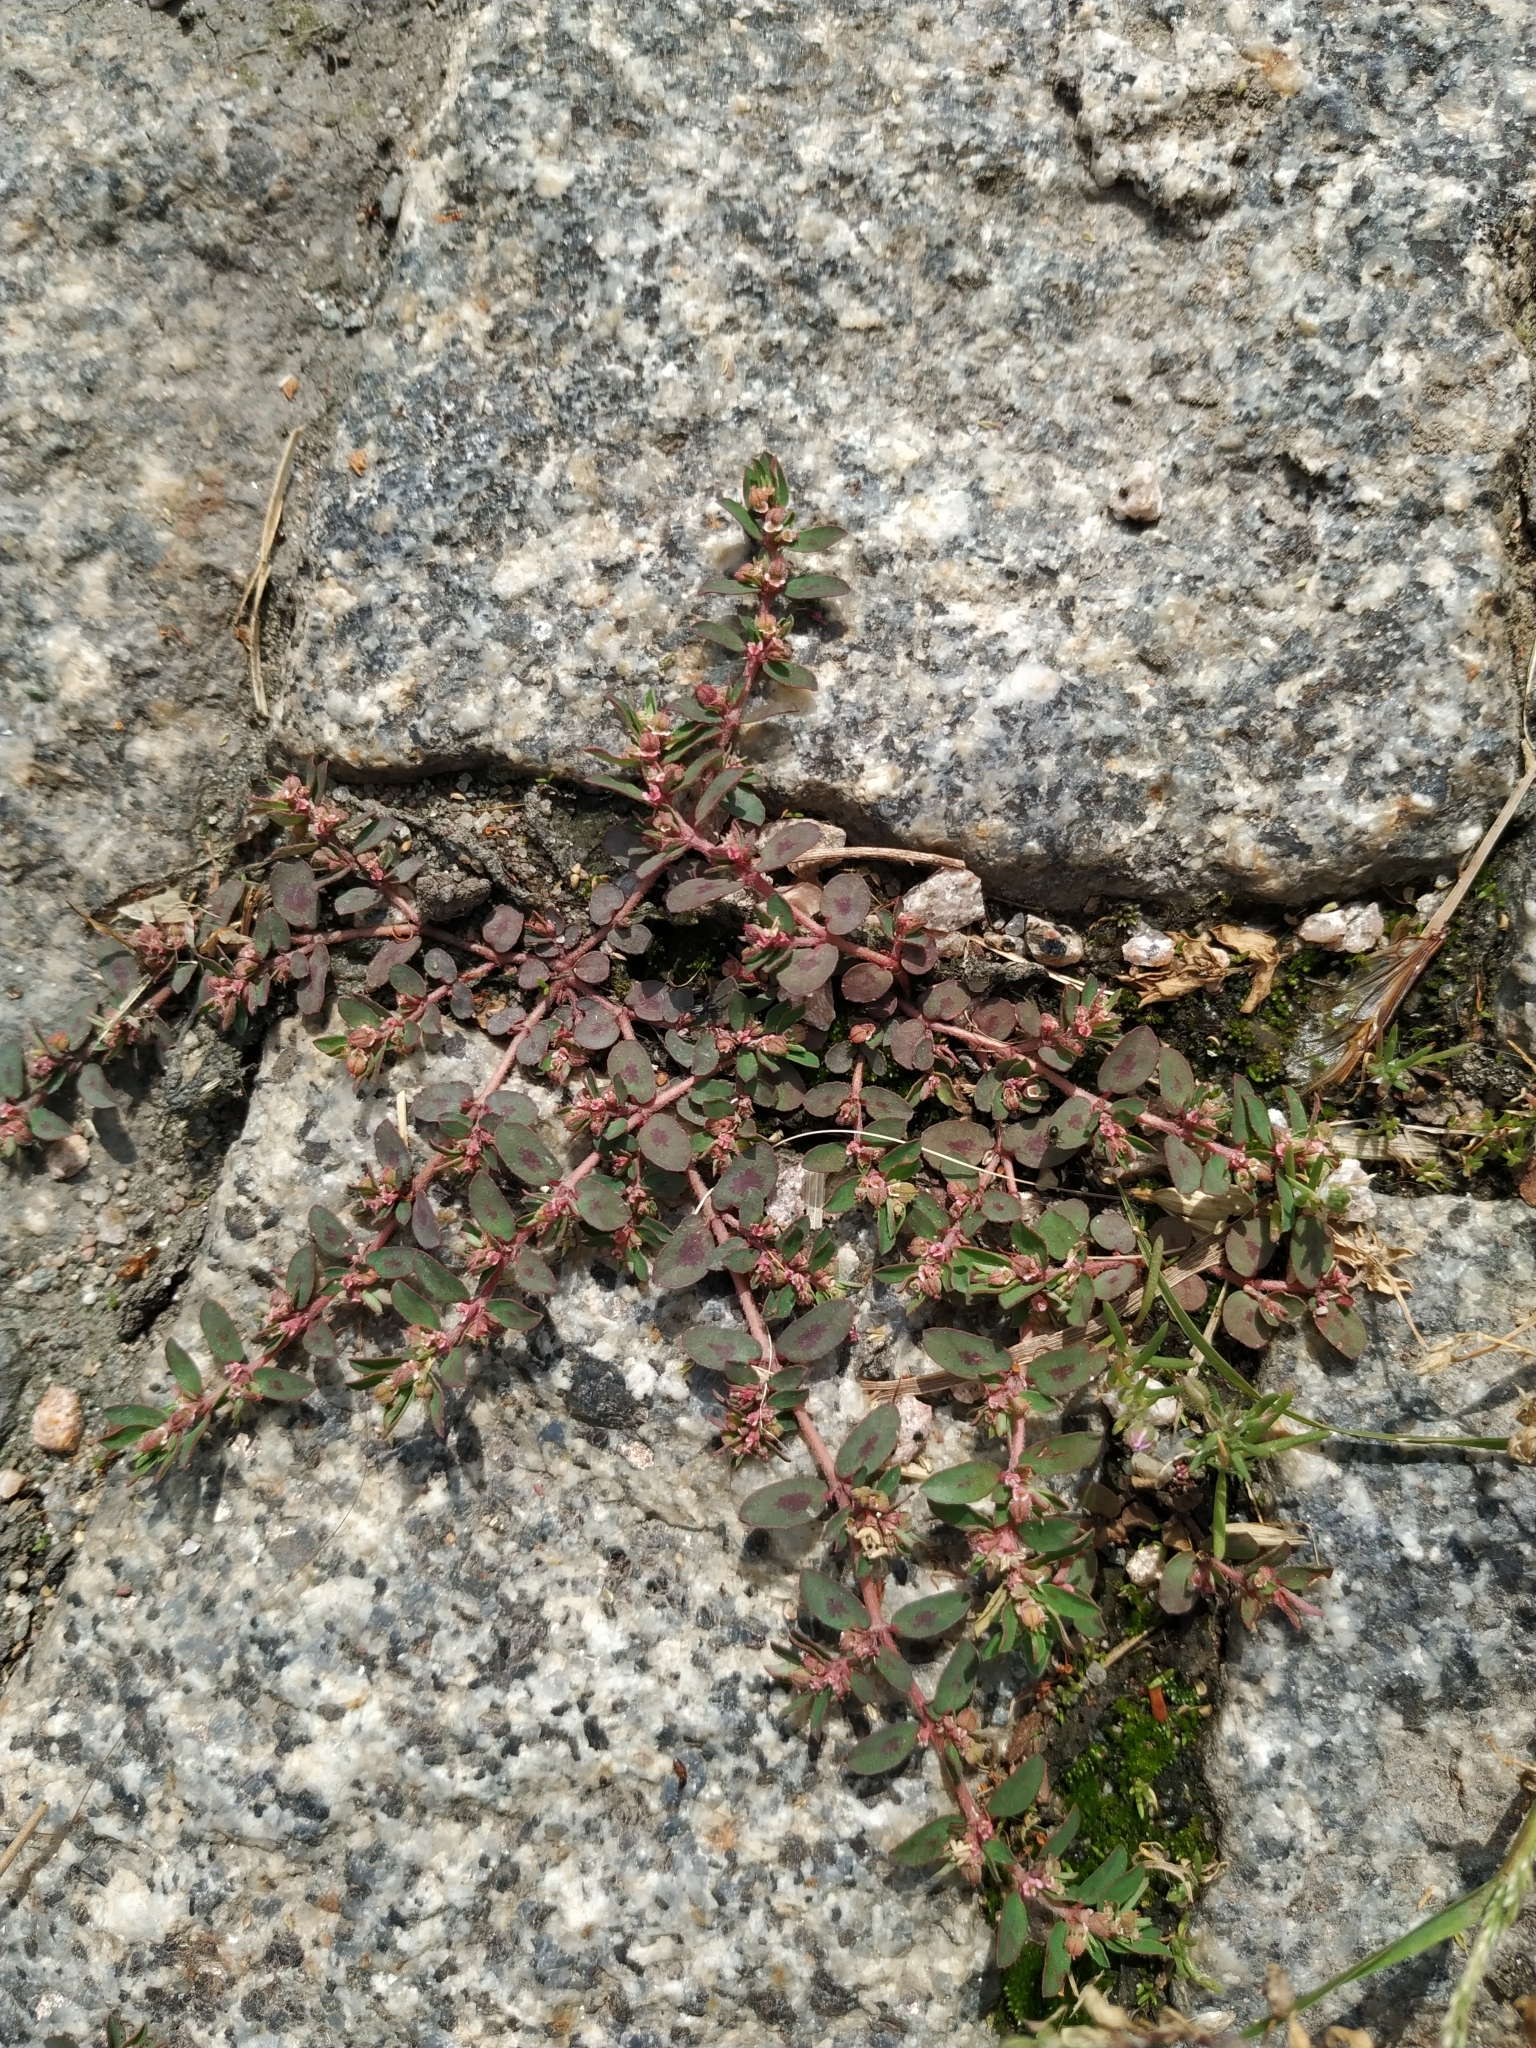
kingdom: Plantae
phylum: Tracheophyta
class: Magnoliopsida
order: Malpighiales
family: Euphorbiaceae
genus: Euphorbia
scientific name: Euphorbia maculata
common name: Spotted spurge
